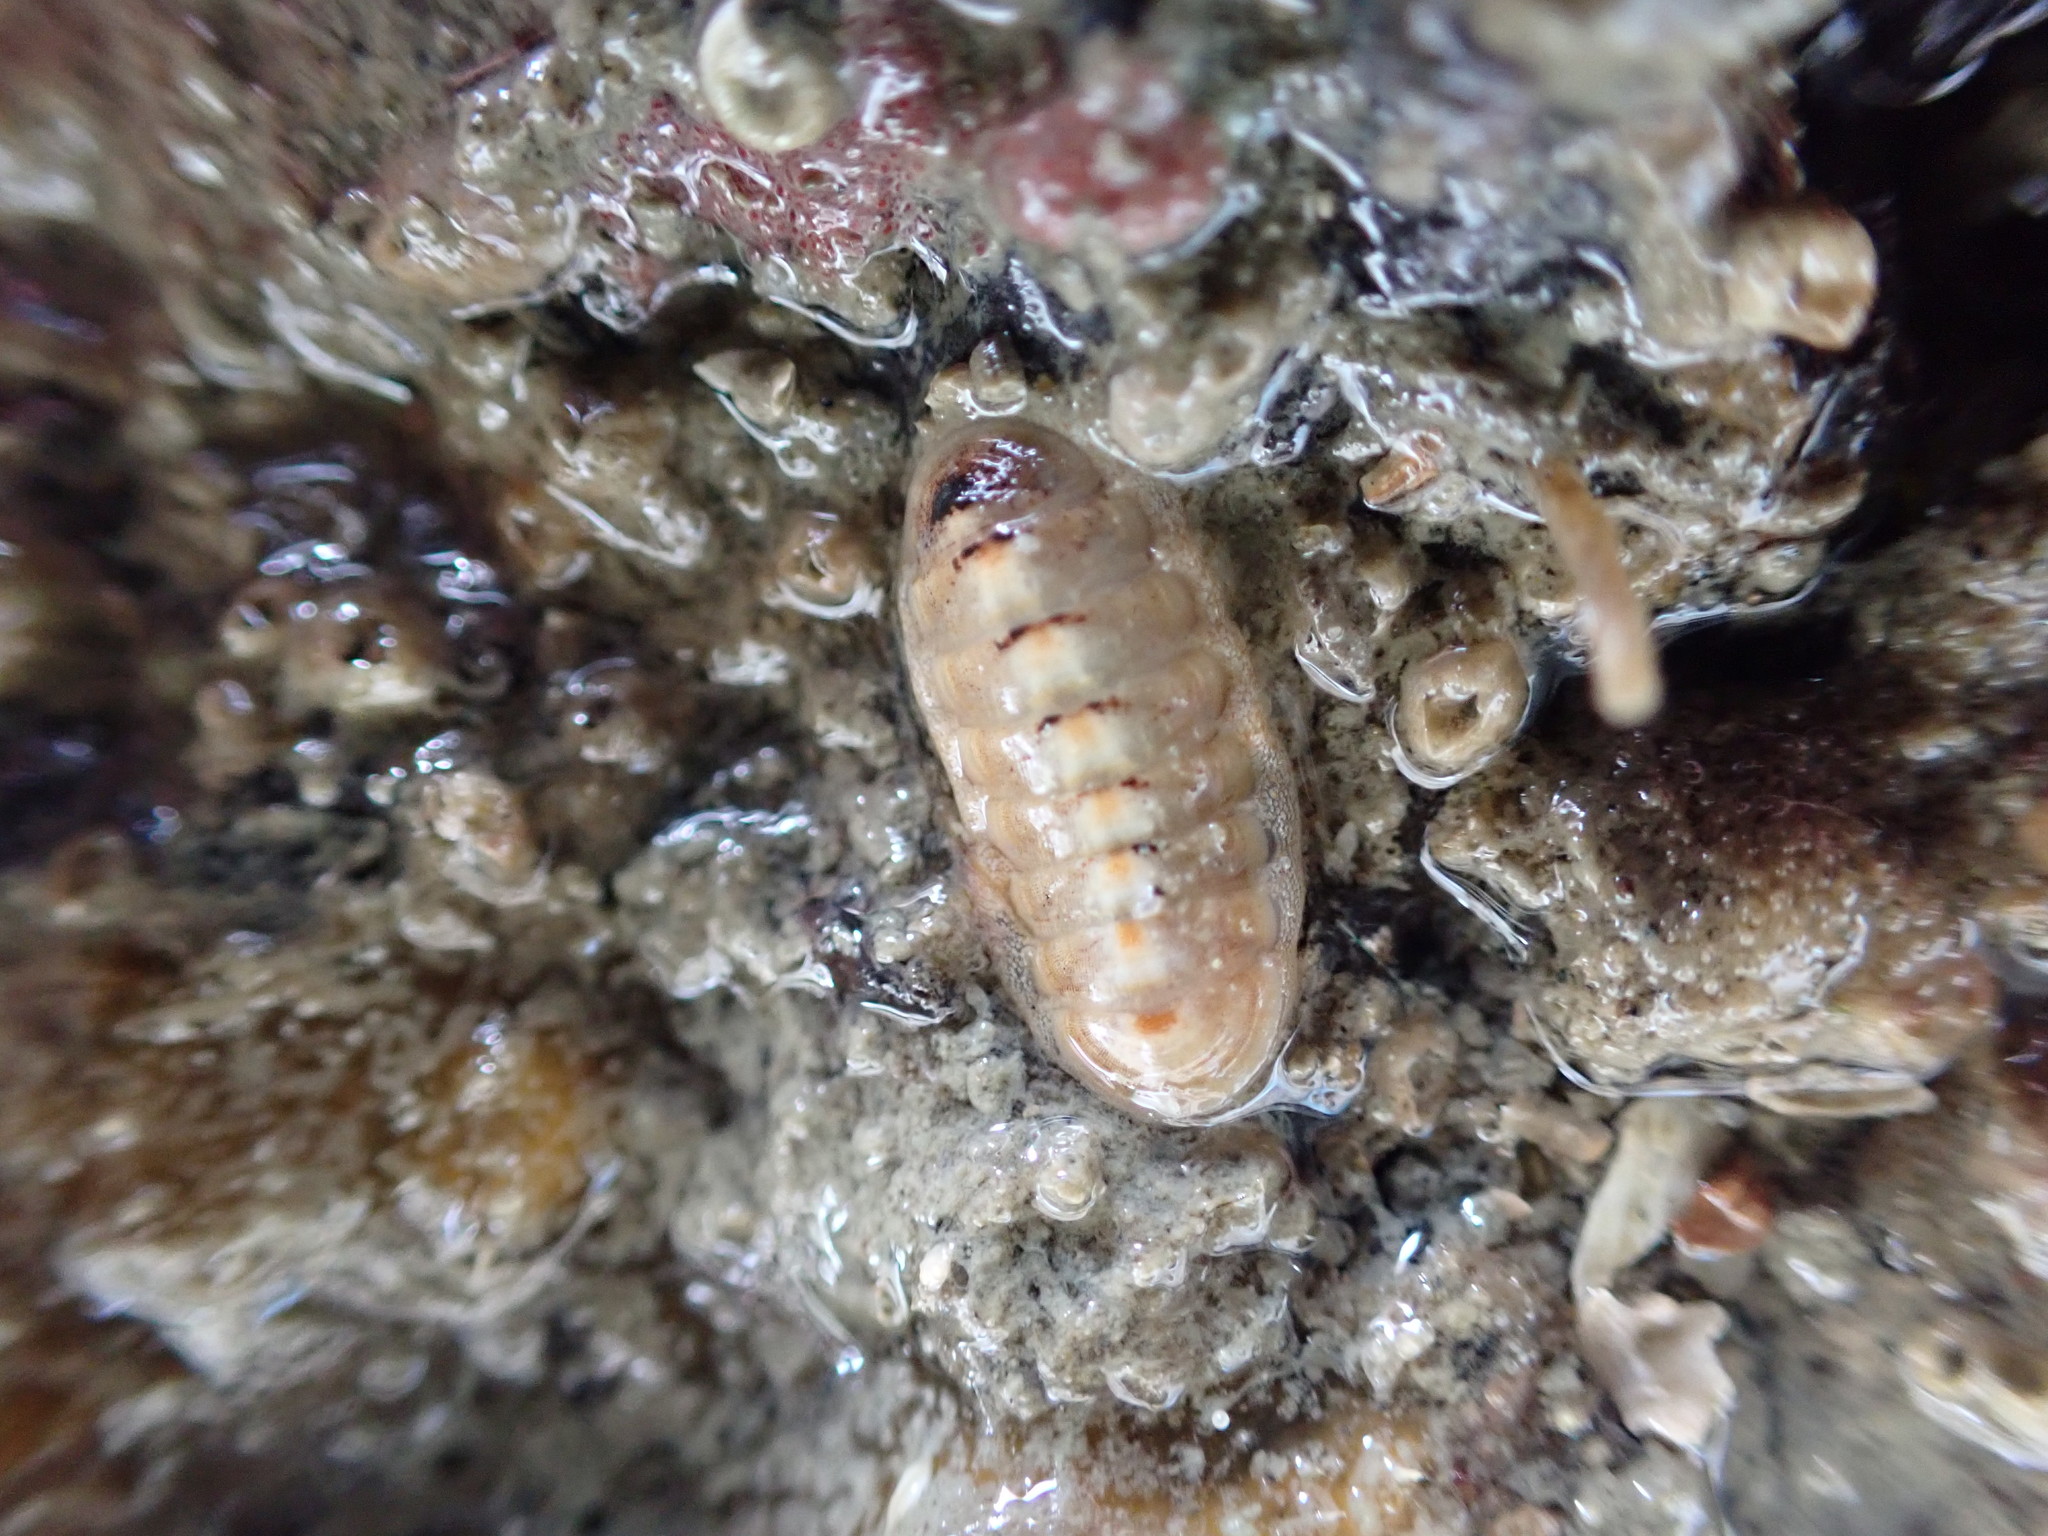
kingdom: Animalia
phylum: Mollusca
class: Polyplacophora
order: Lepidopleurida
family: Leptochitonidae
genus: Leptochiton
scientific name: Leptochiton inquinatus
